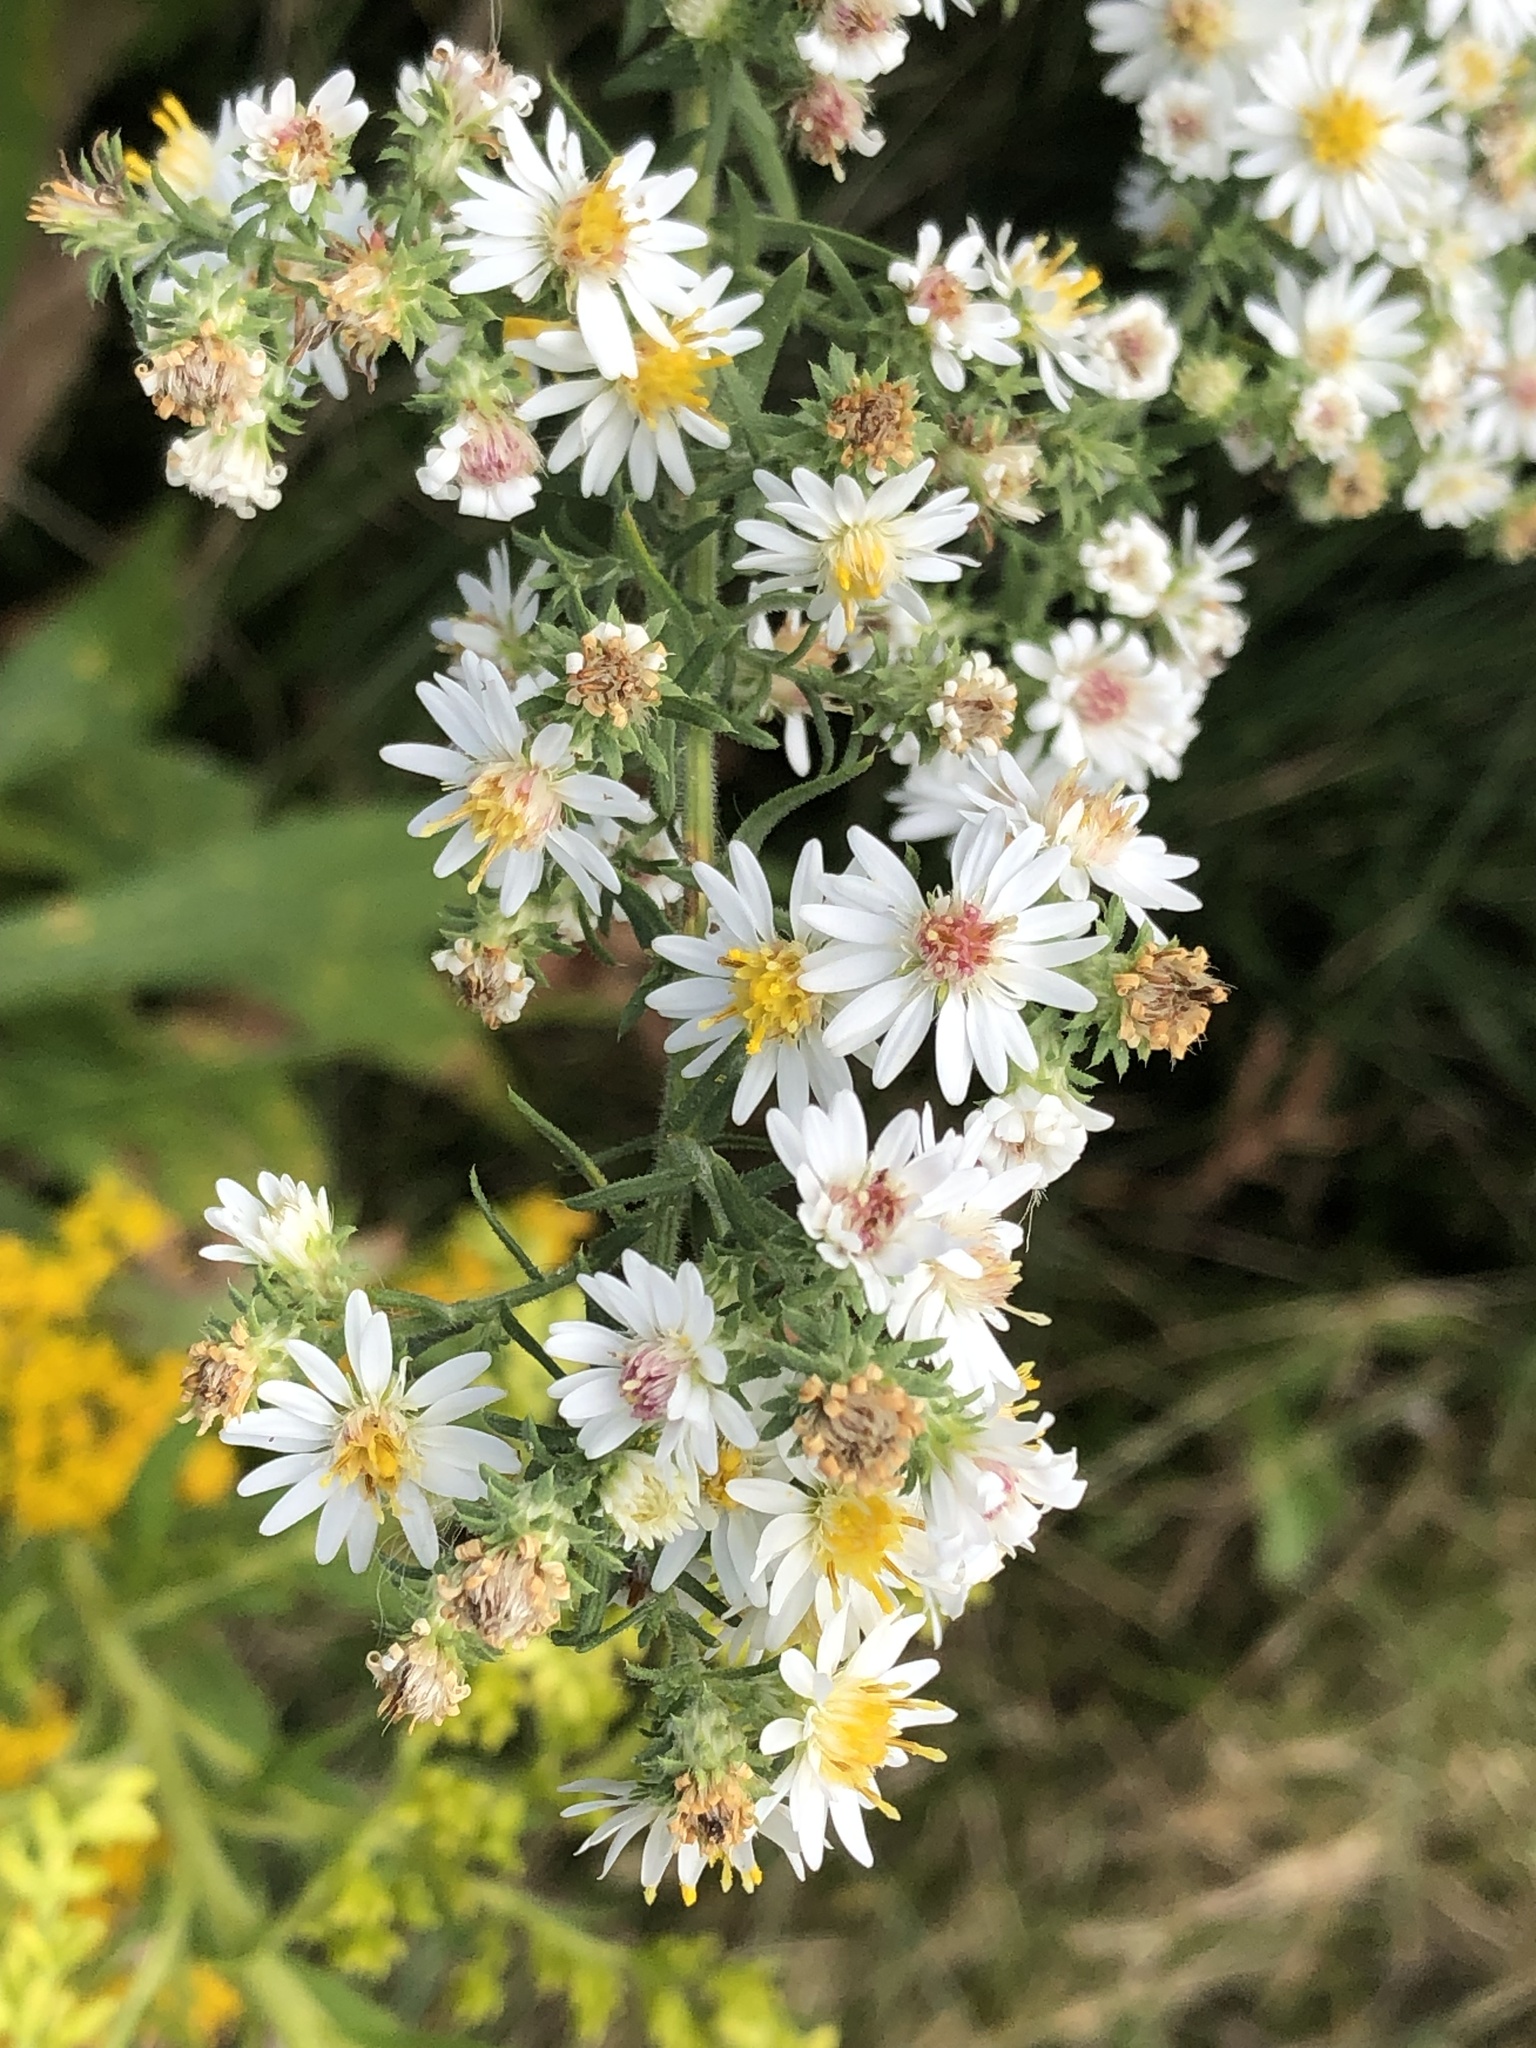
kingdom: Plantae
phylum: Tracheophyta
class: Magnoliopsida
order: Asterales
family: Asteraceae
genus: Symphyotrichum
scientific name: Symphyotrichum ericoides
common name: Heath aster
